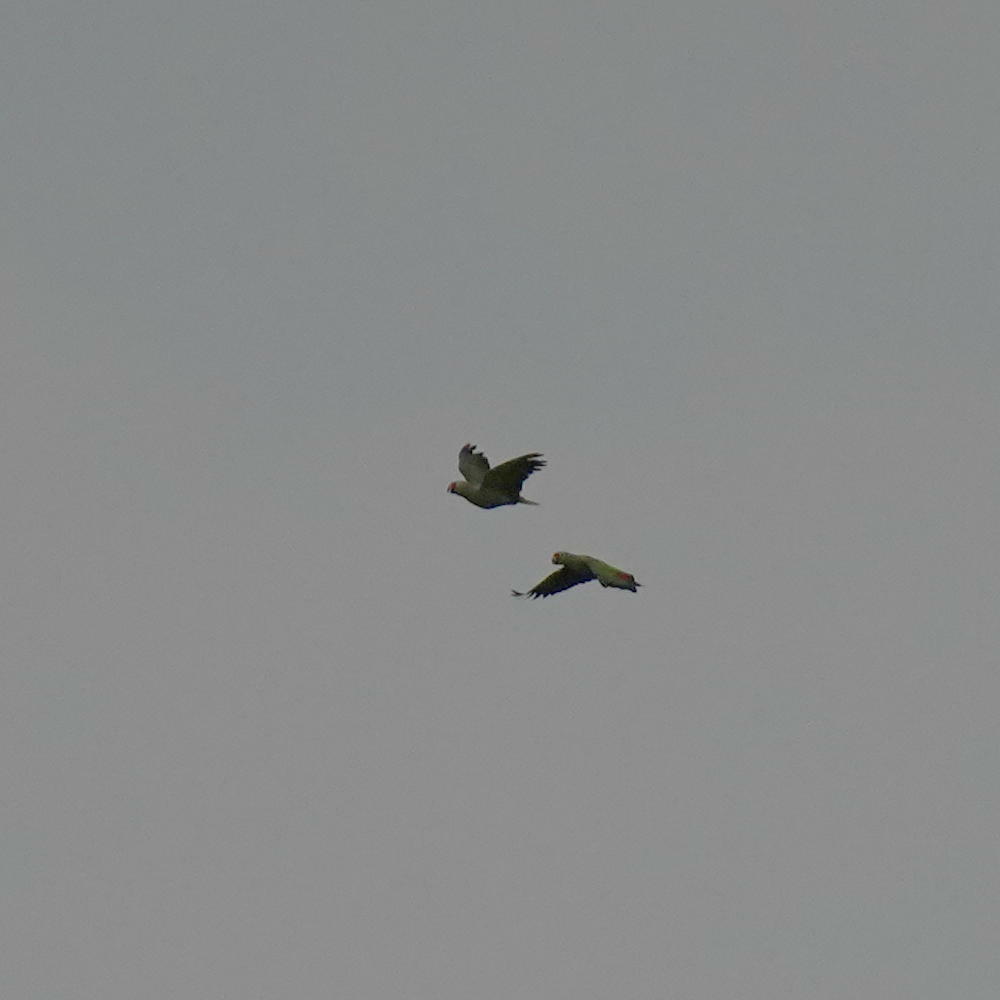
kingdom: Animalia
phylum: Chordata
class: Aves
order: Psittaciformes
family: Psittacidae
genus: Amazona
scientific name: Amazona autumnalis
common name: Red-lored amazon
